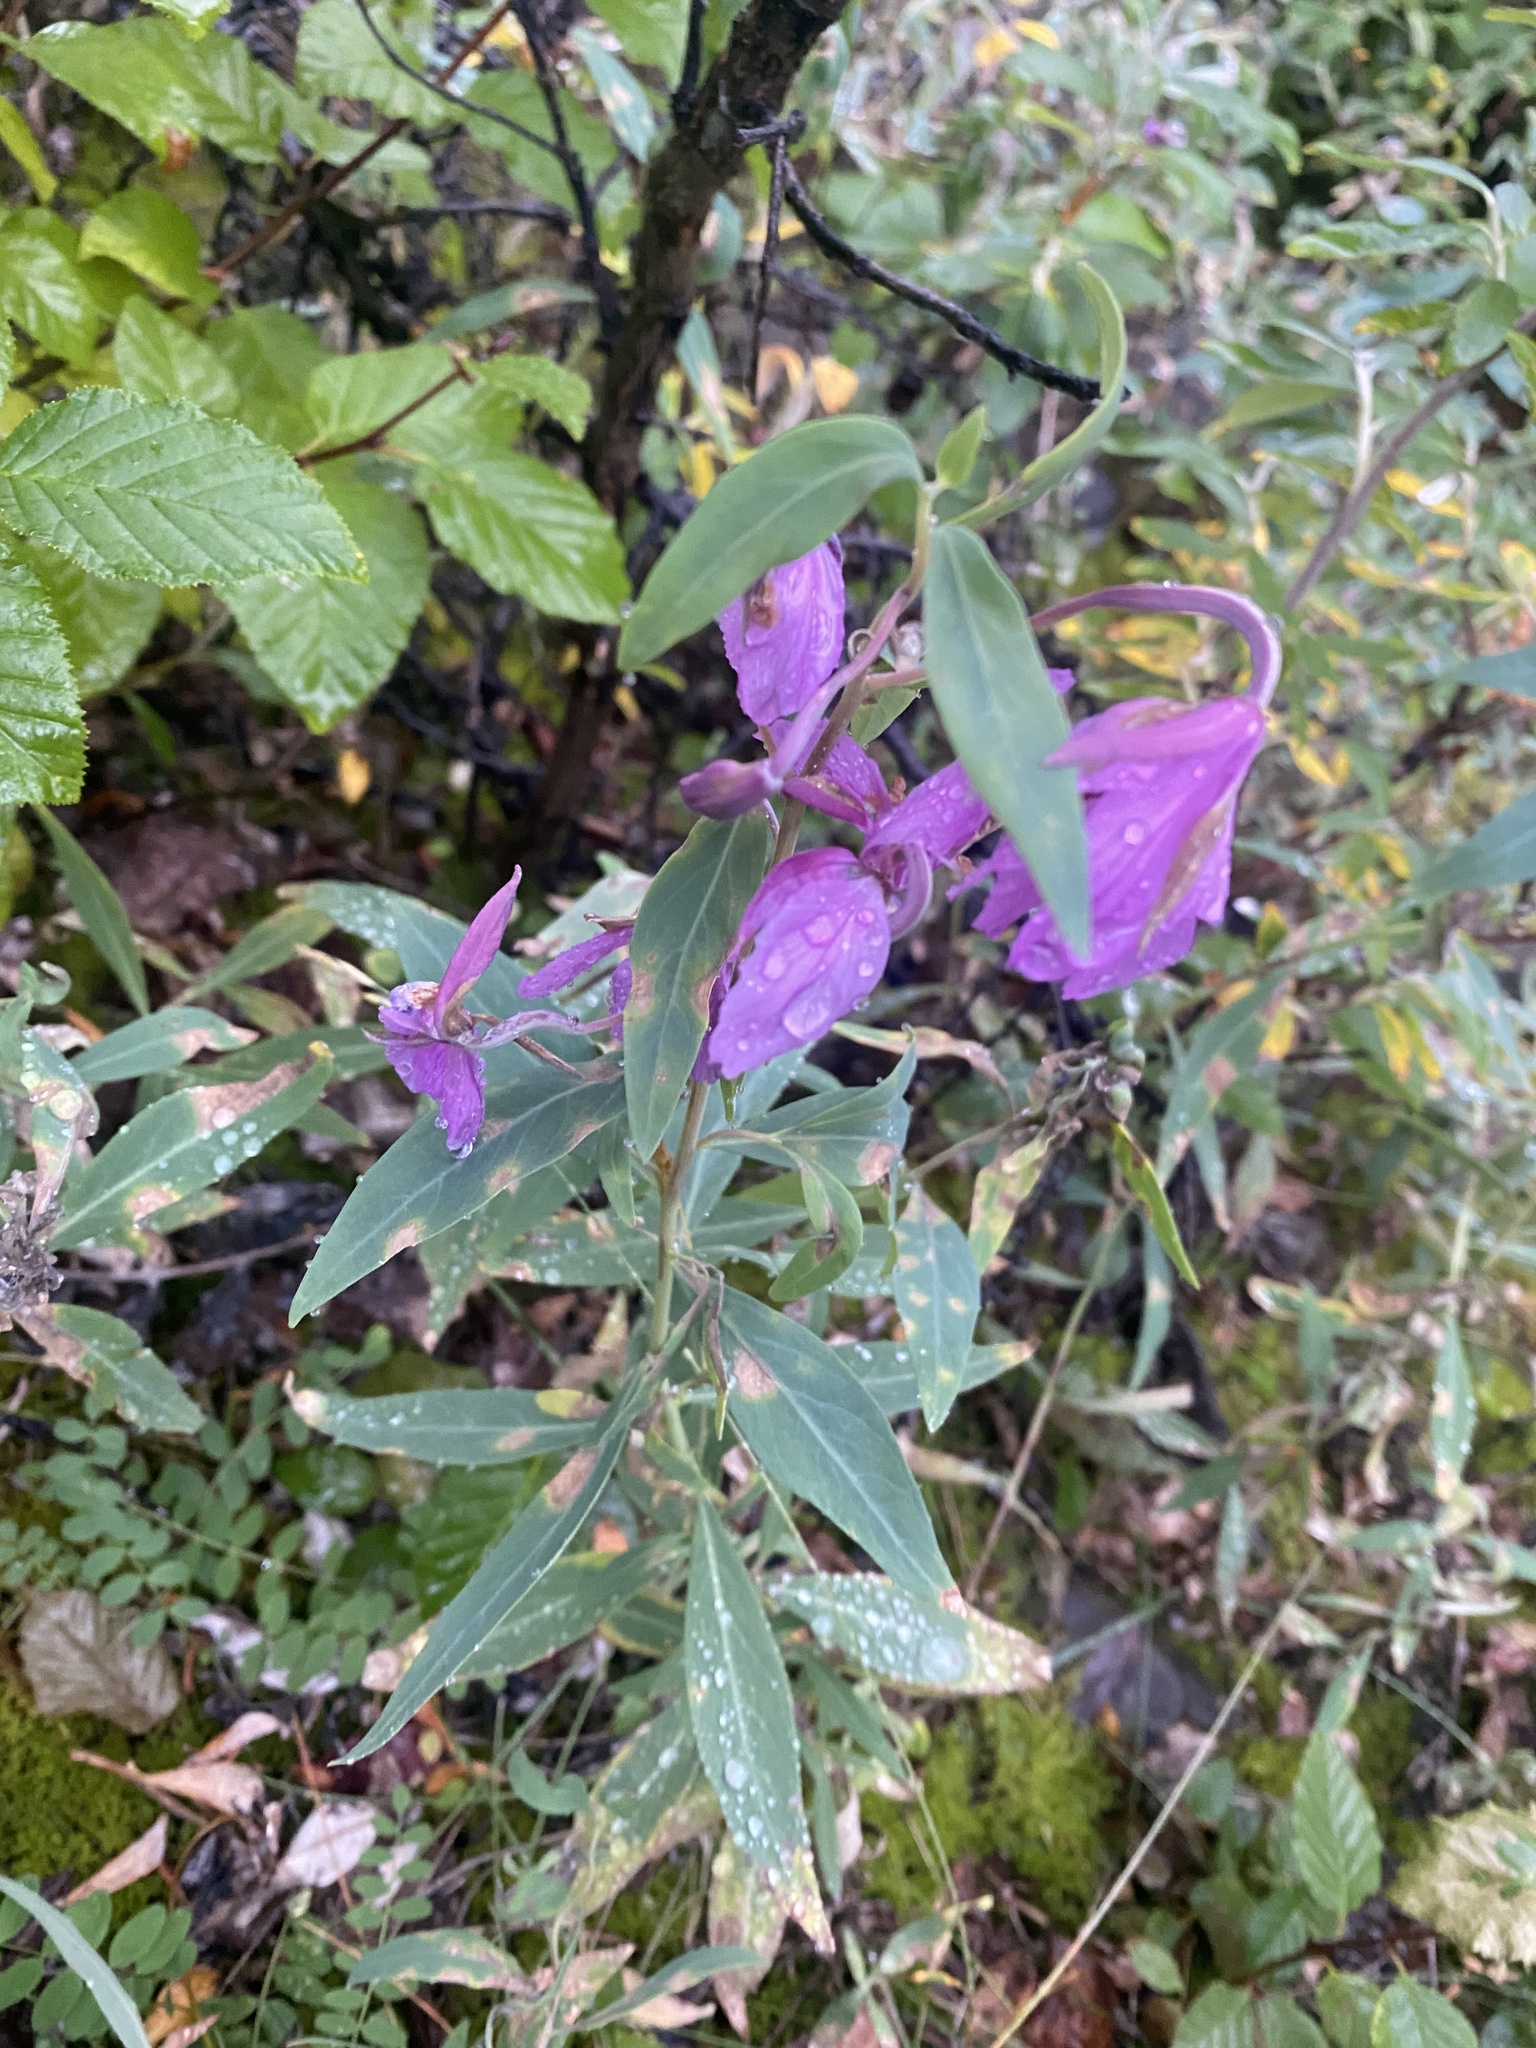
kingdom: Plantae
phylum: Tracheophyta
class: Magnoliopsida
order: Myrtales
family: Onagraceae
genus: Chamaenerion
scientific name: Chamaenerion latifolium
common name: Dwarf fireweed
